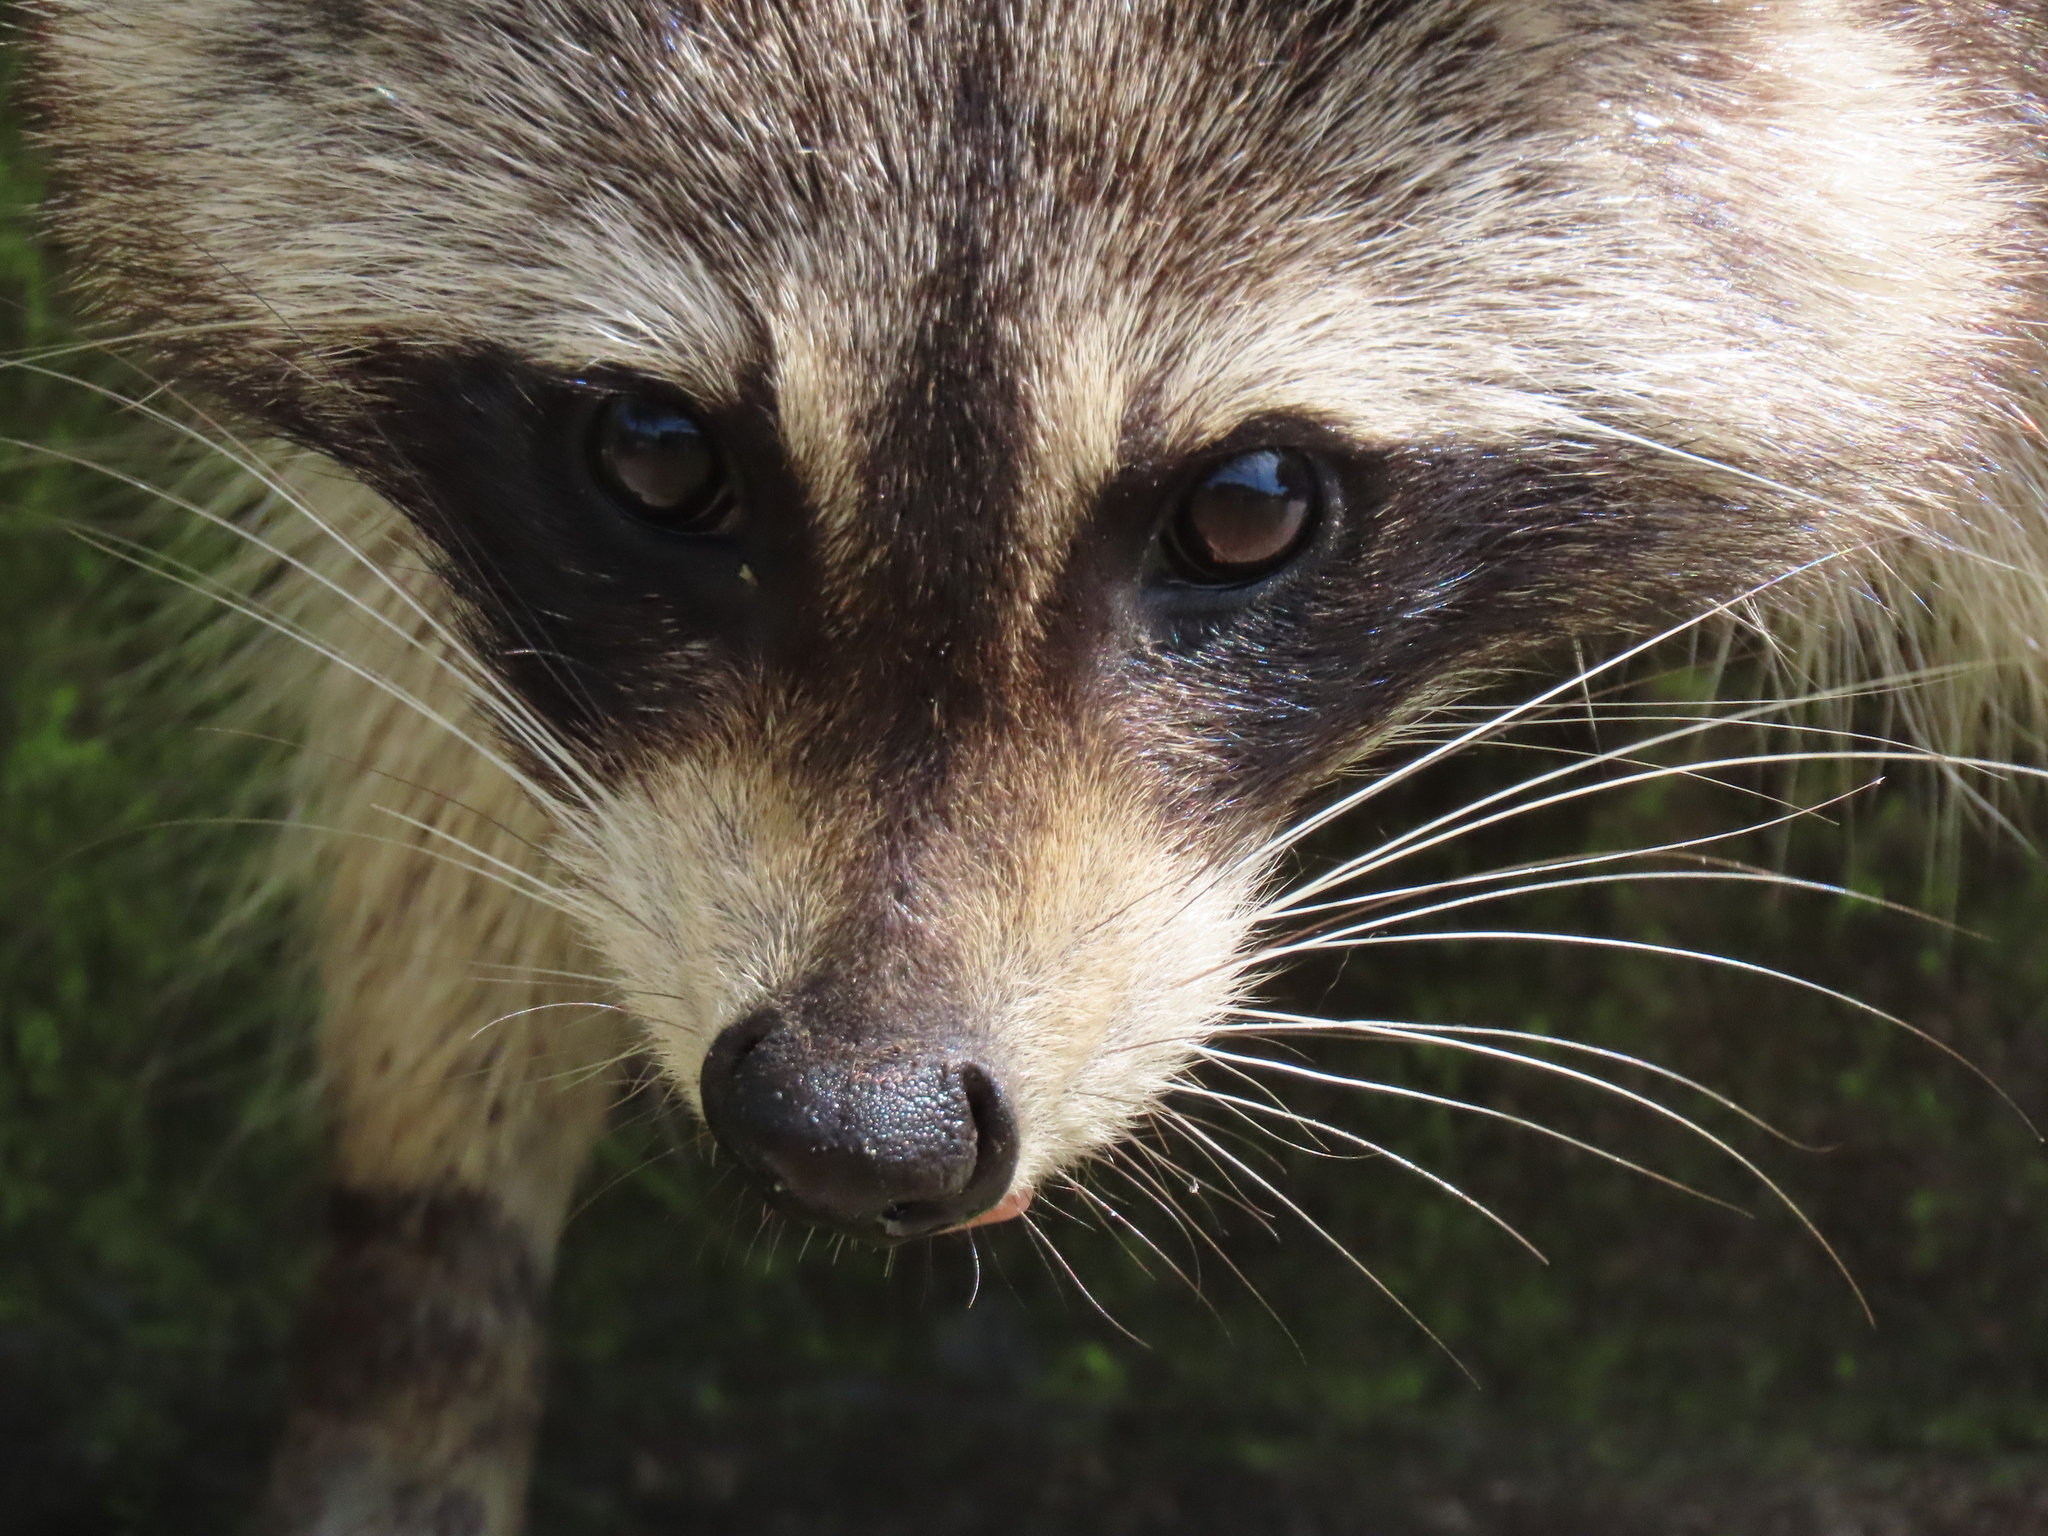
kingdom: Animalia
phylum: Chordata
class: Mammalia
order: Carnivora
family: Procyonidae
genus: Procyon
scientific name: Procyon lotor
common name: Raccoon
